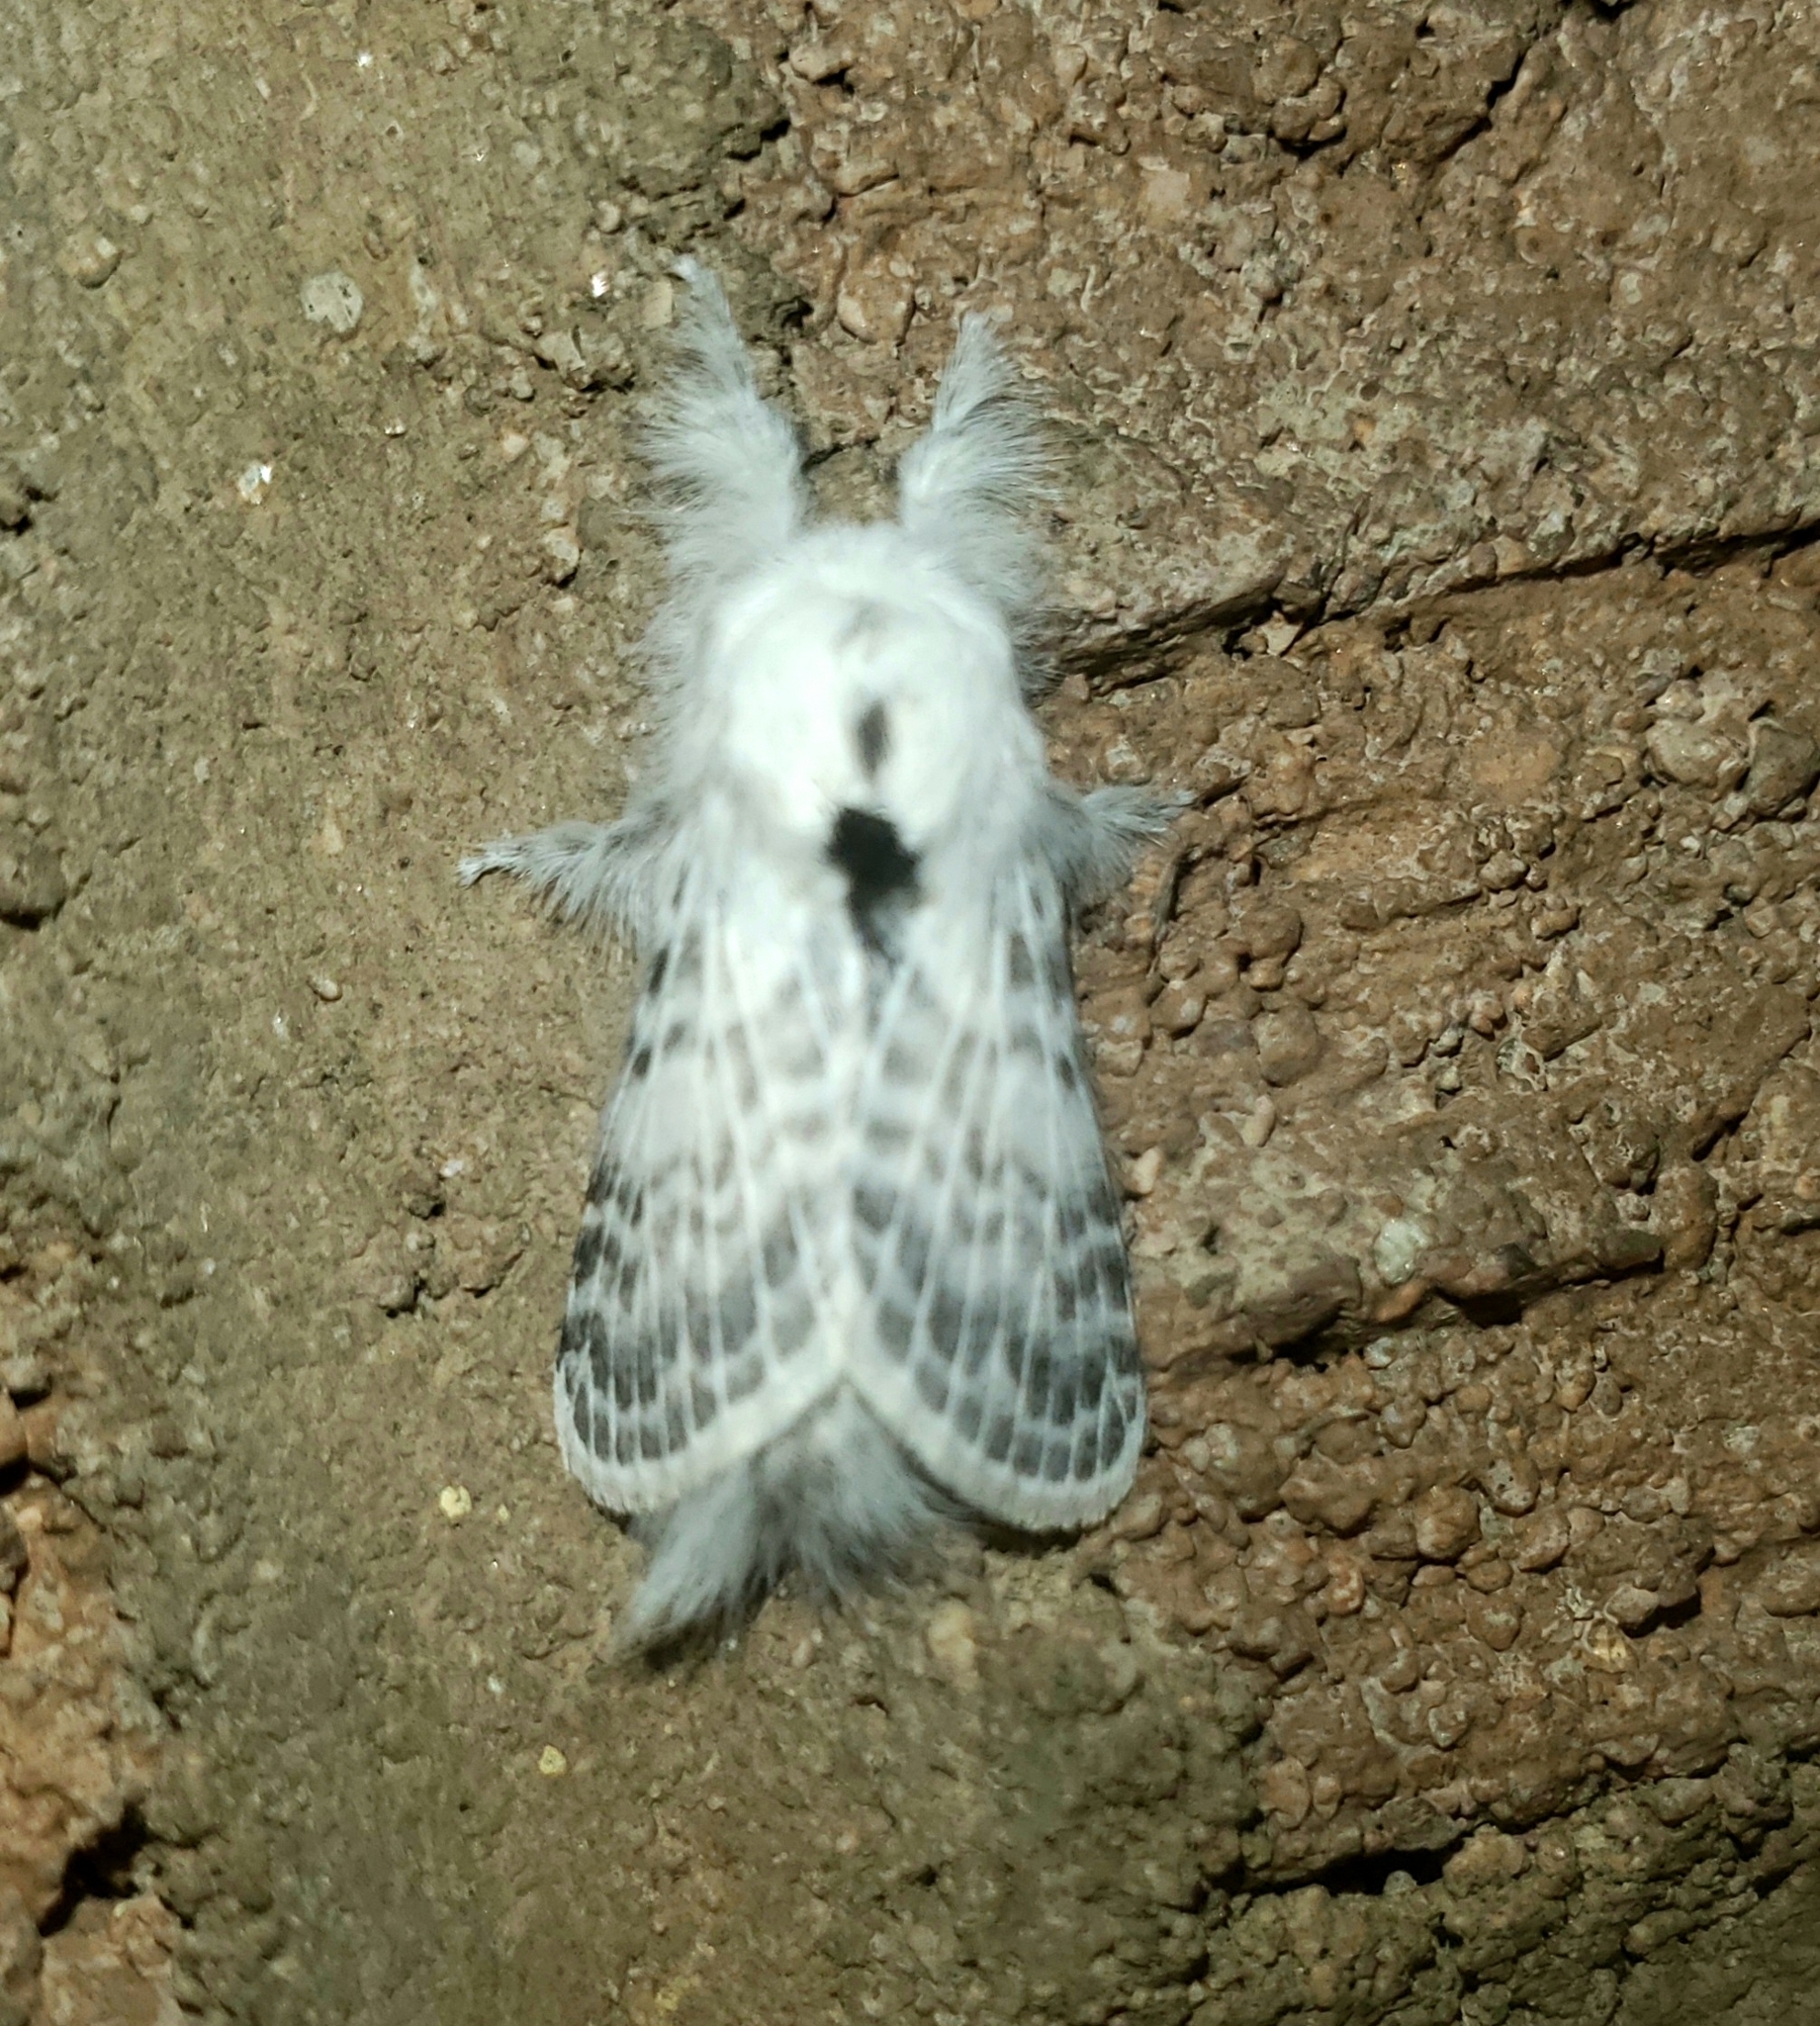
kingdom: Animalia
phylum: Arthropoda
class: Insecta
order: Lepidoptera
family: Lasiocampidae
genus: Apotolype
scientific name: Apotolype brevicrista
